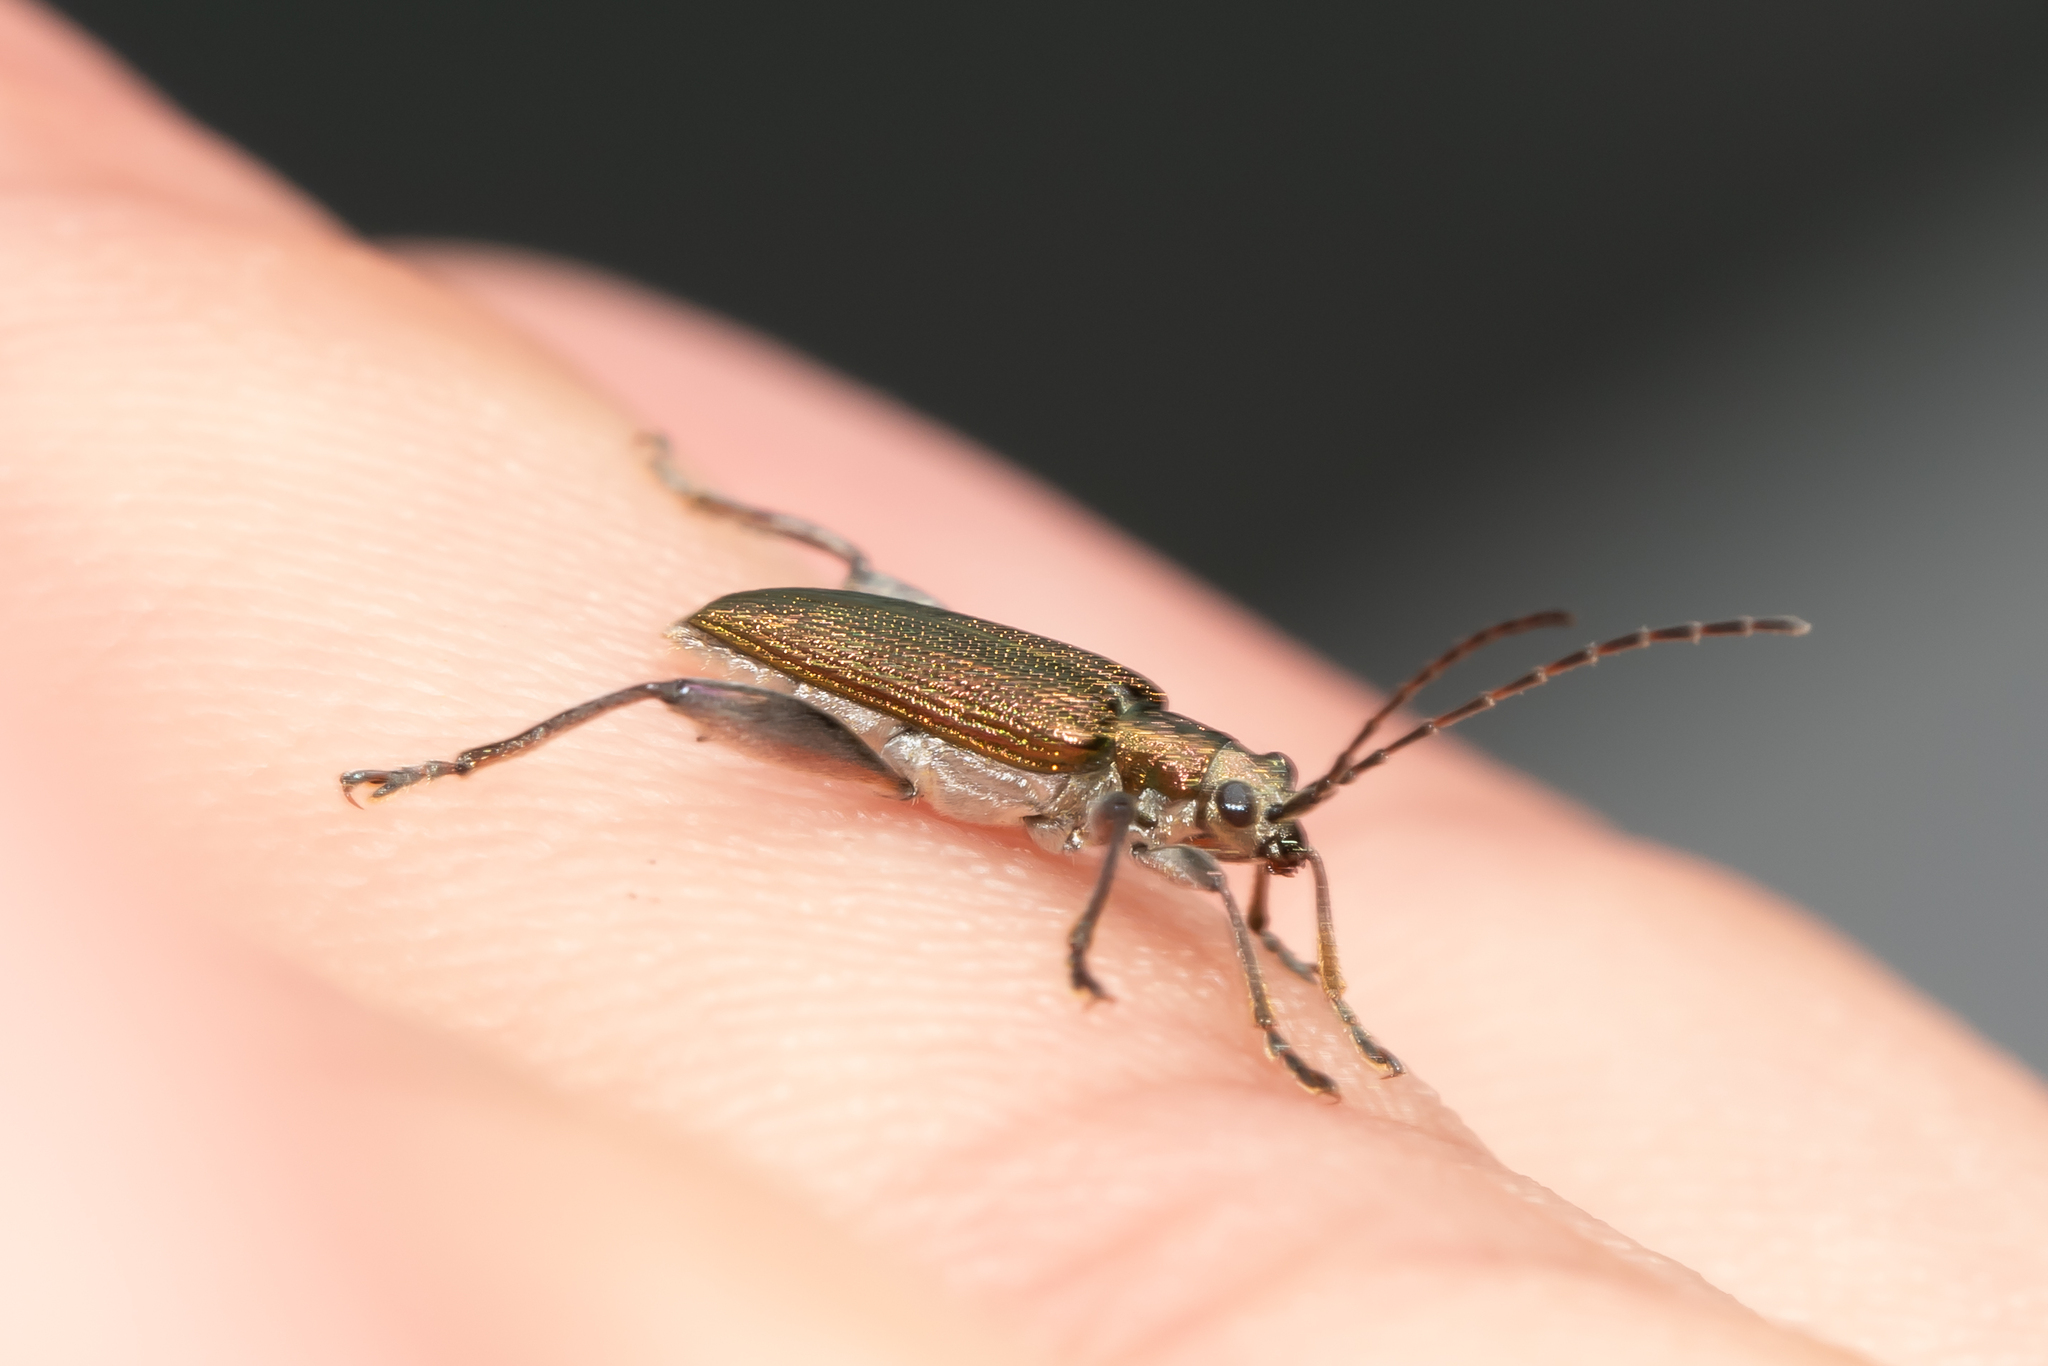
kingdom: Animalia
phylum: Arthropoda
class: Insecta
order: Coleoptera
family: Chrysomelidae
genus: Donacia
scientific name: Donacia dentata
